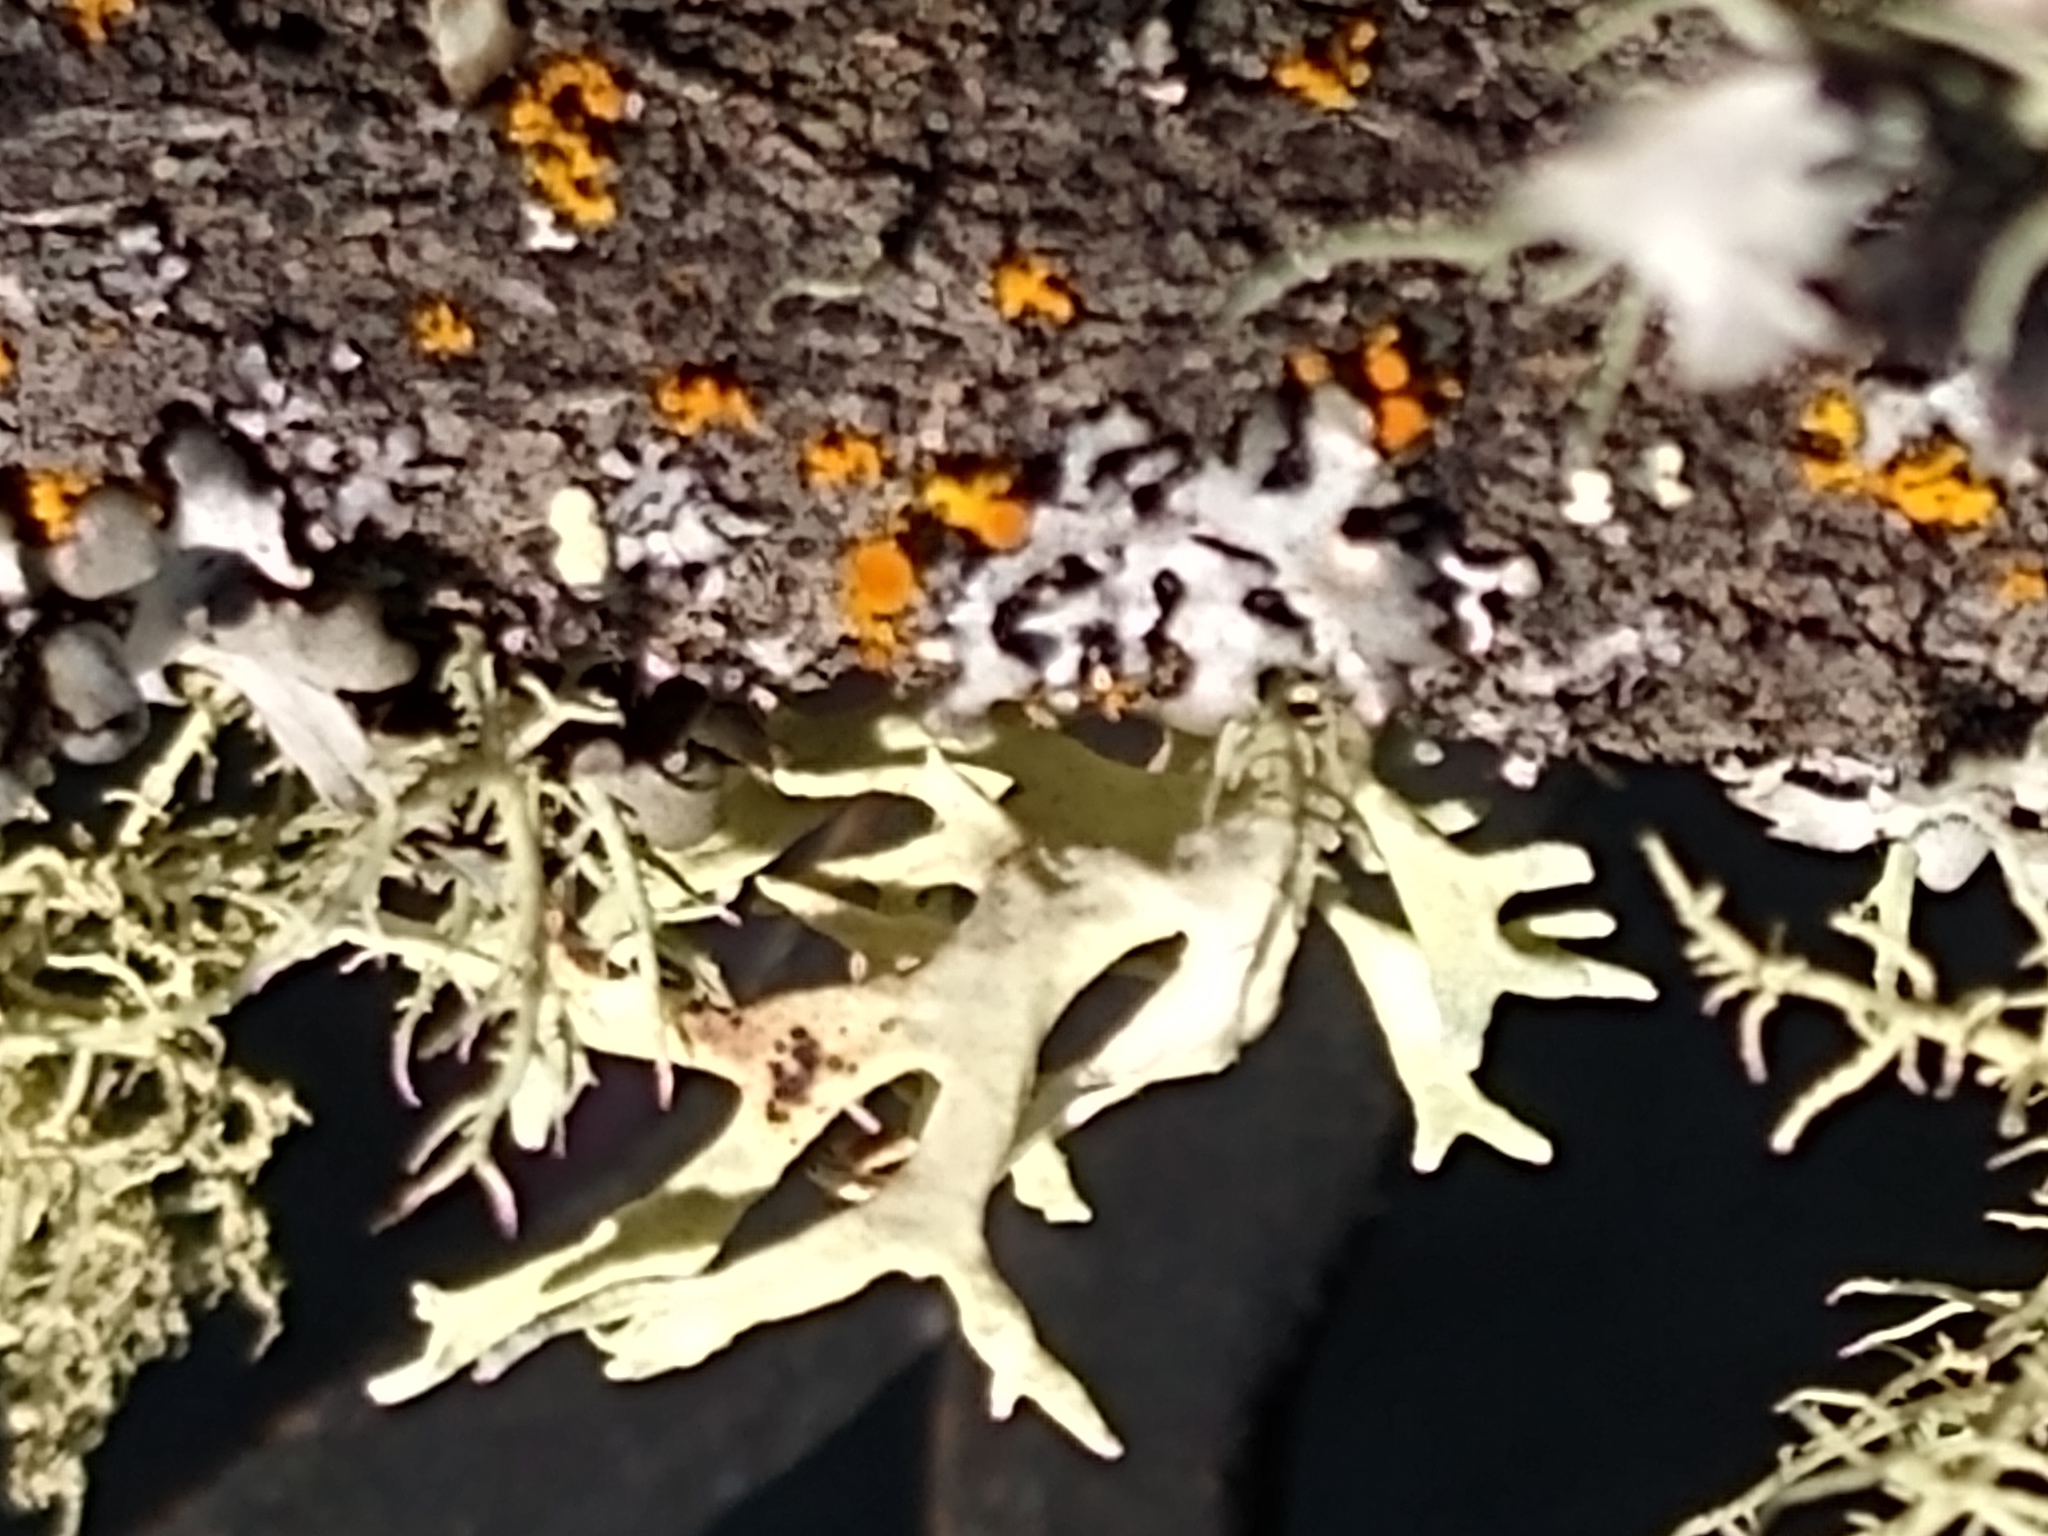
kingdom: Fungi
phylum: Ascomycota
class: Lecanoromycetes
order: Lecanorales
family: Parmeliaceae
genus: Evernia
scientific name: Evernia prunastri
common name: Oak moss
